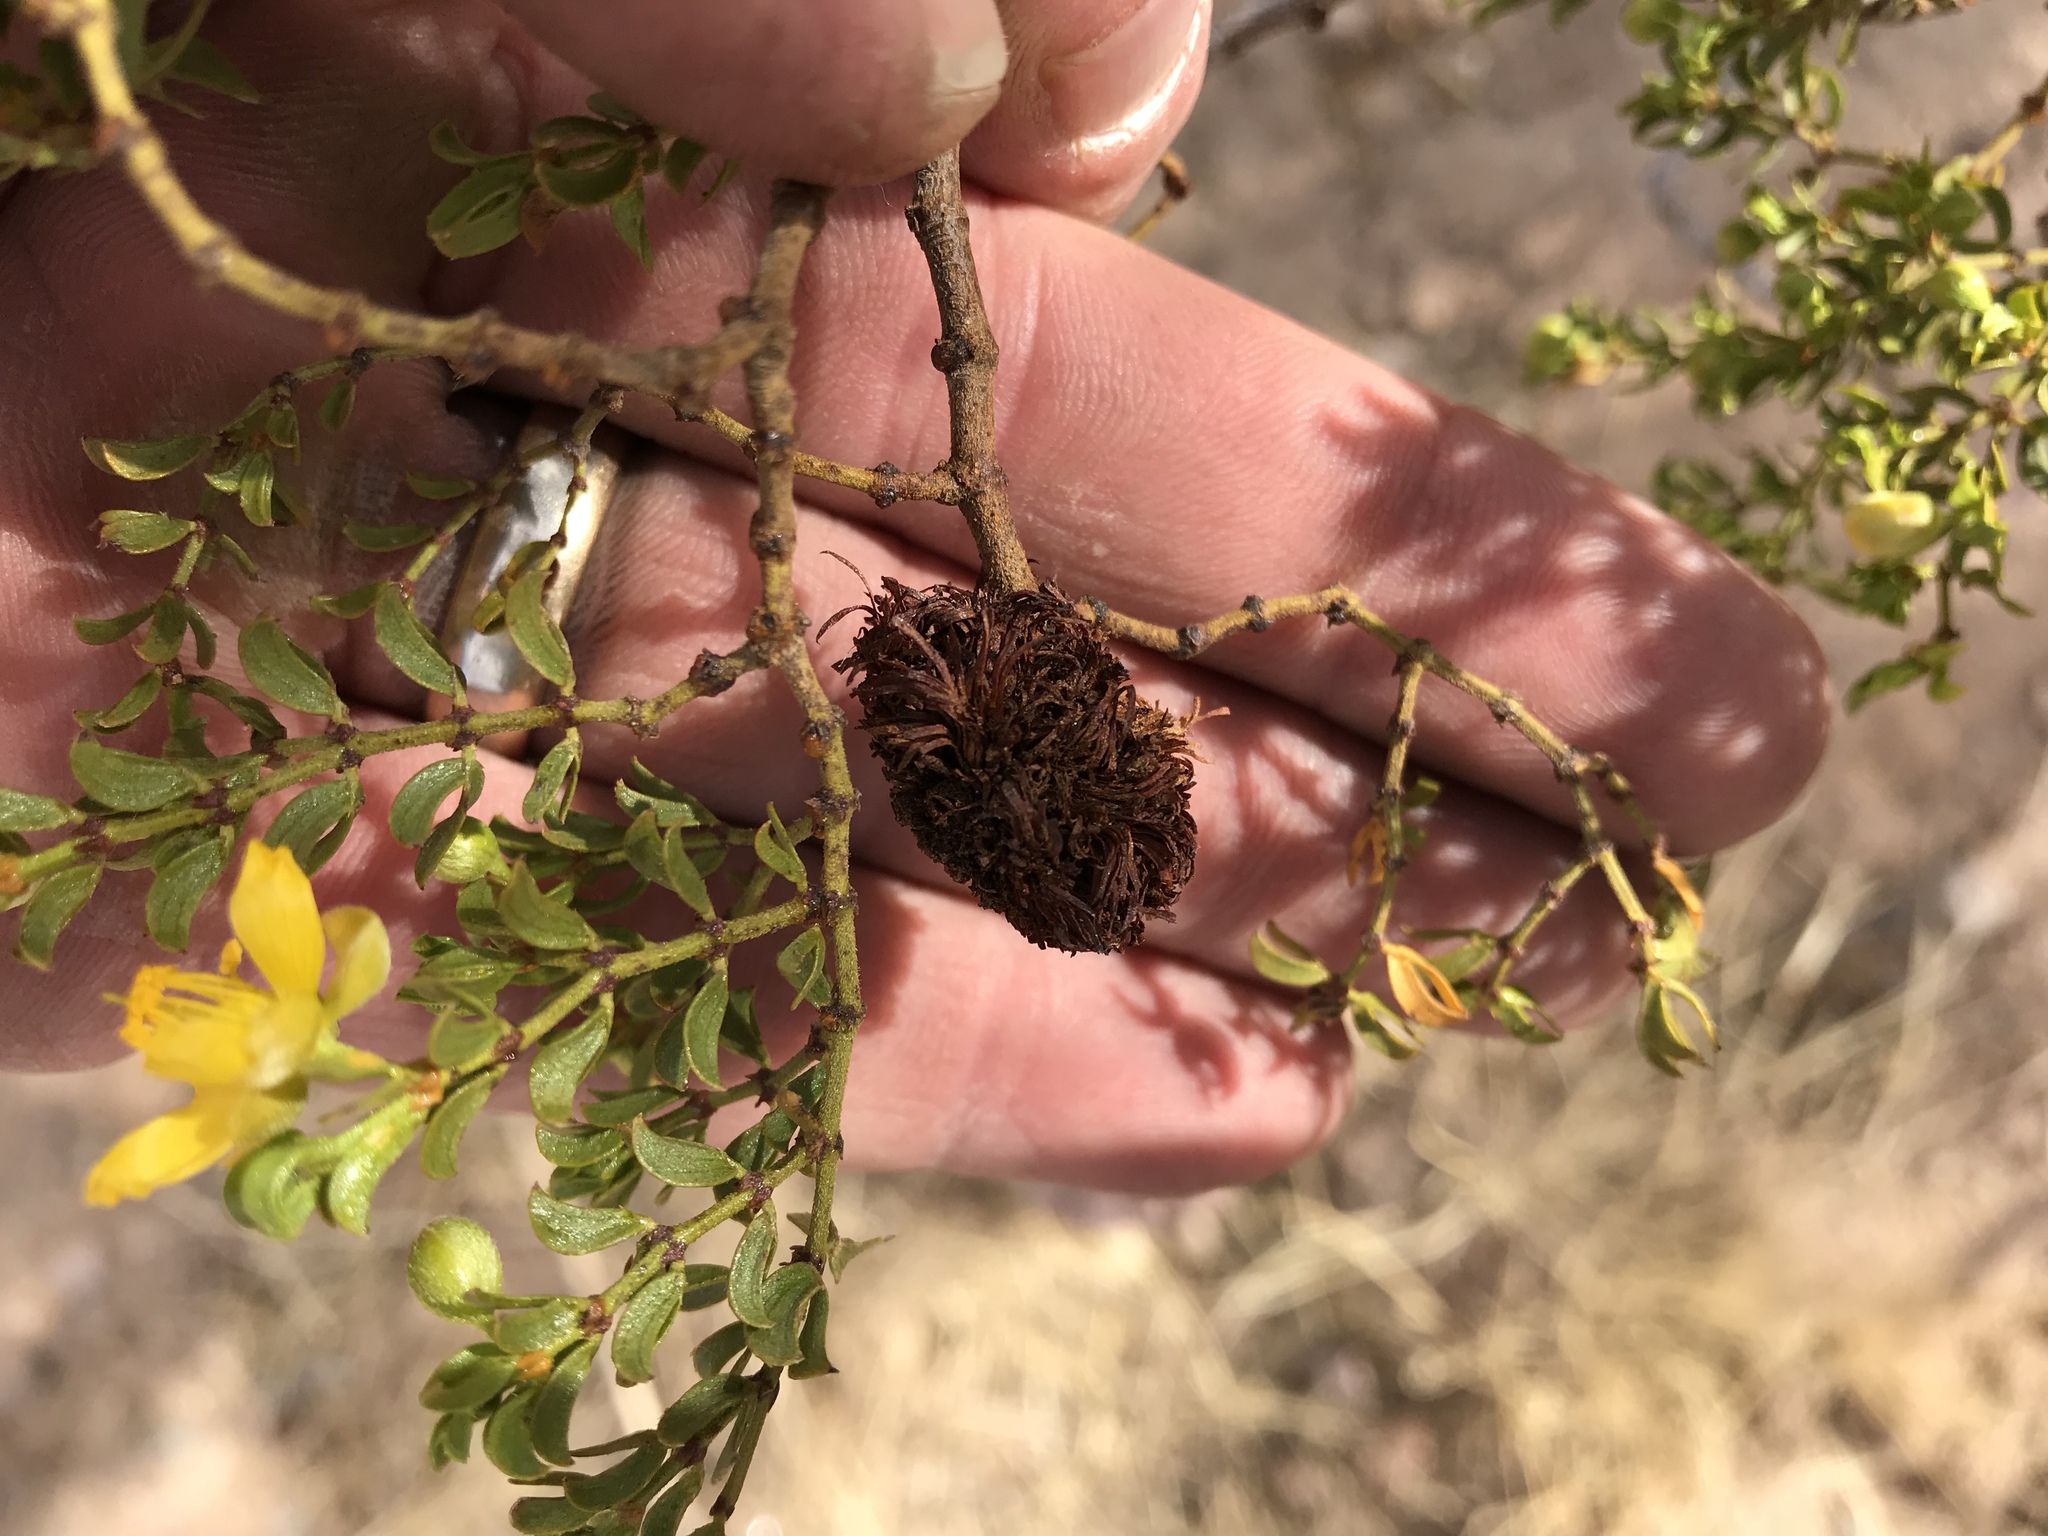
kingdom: Animalia
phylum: Arthropoda
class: Insecta
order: Diptera
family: Cecidomyiidae
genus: Asphondylia
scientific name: Asphondylia auripila
